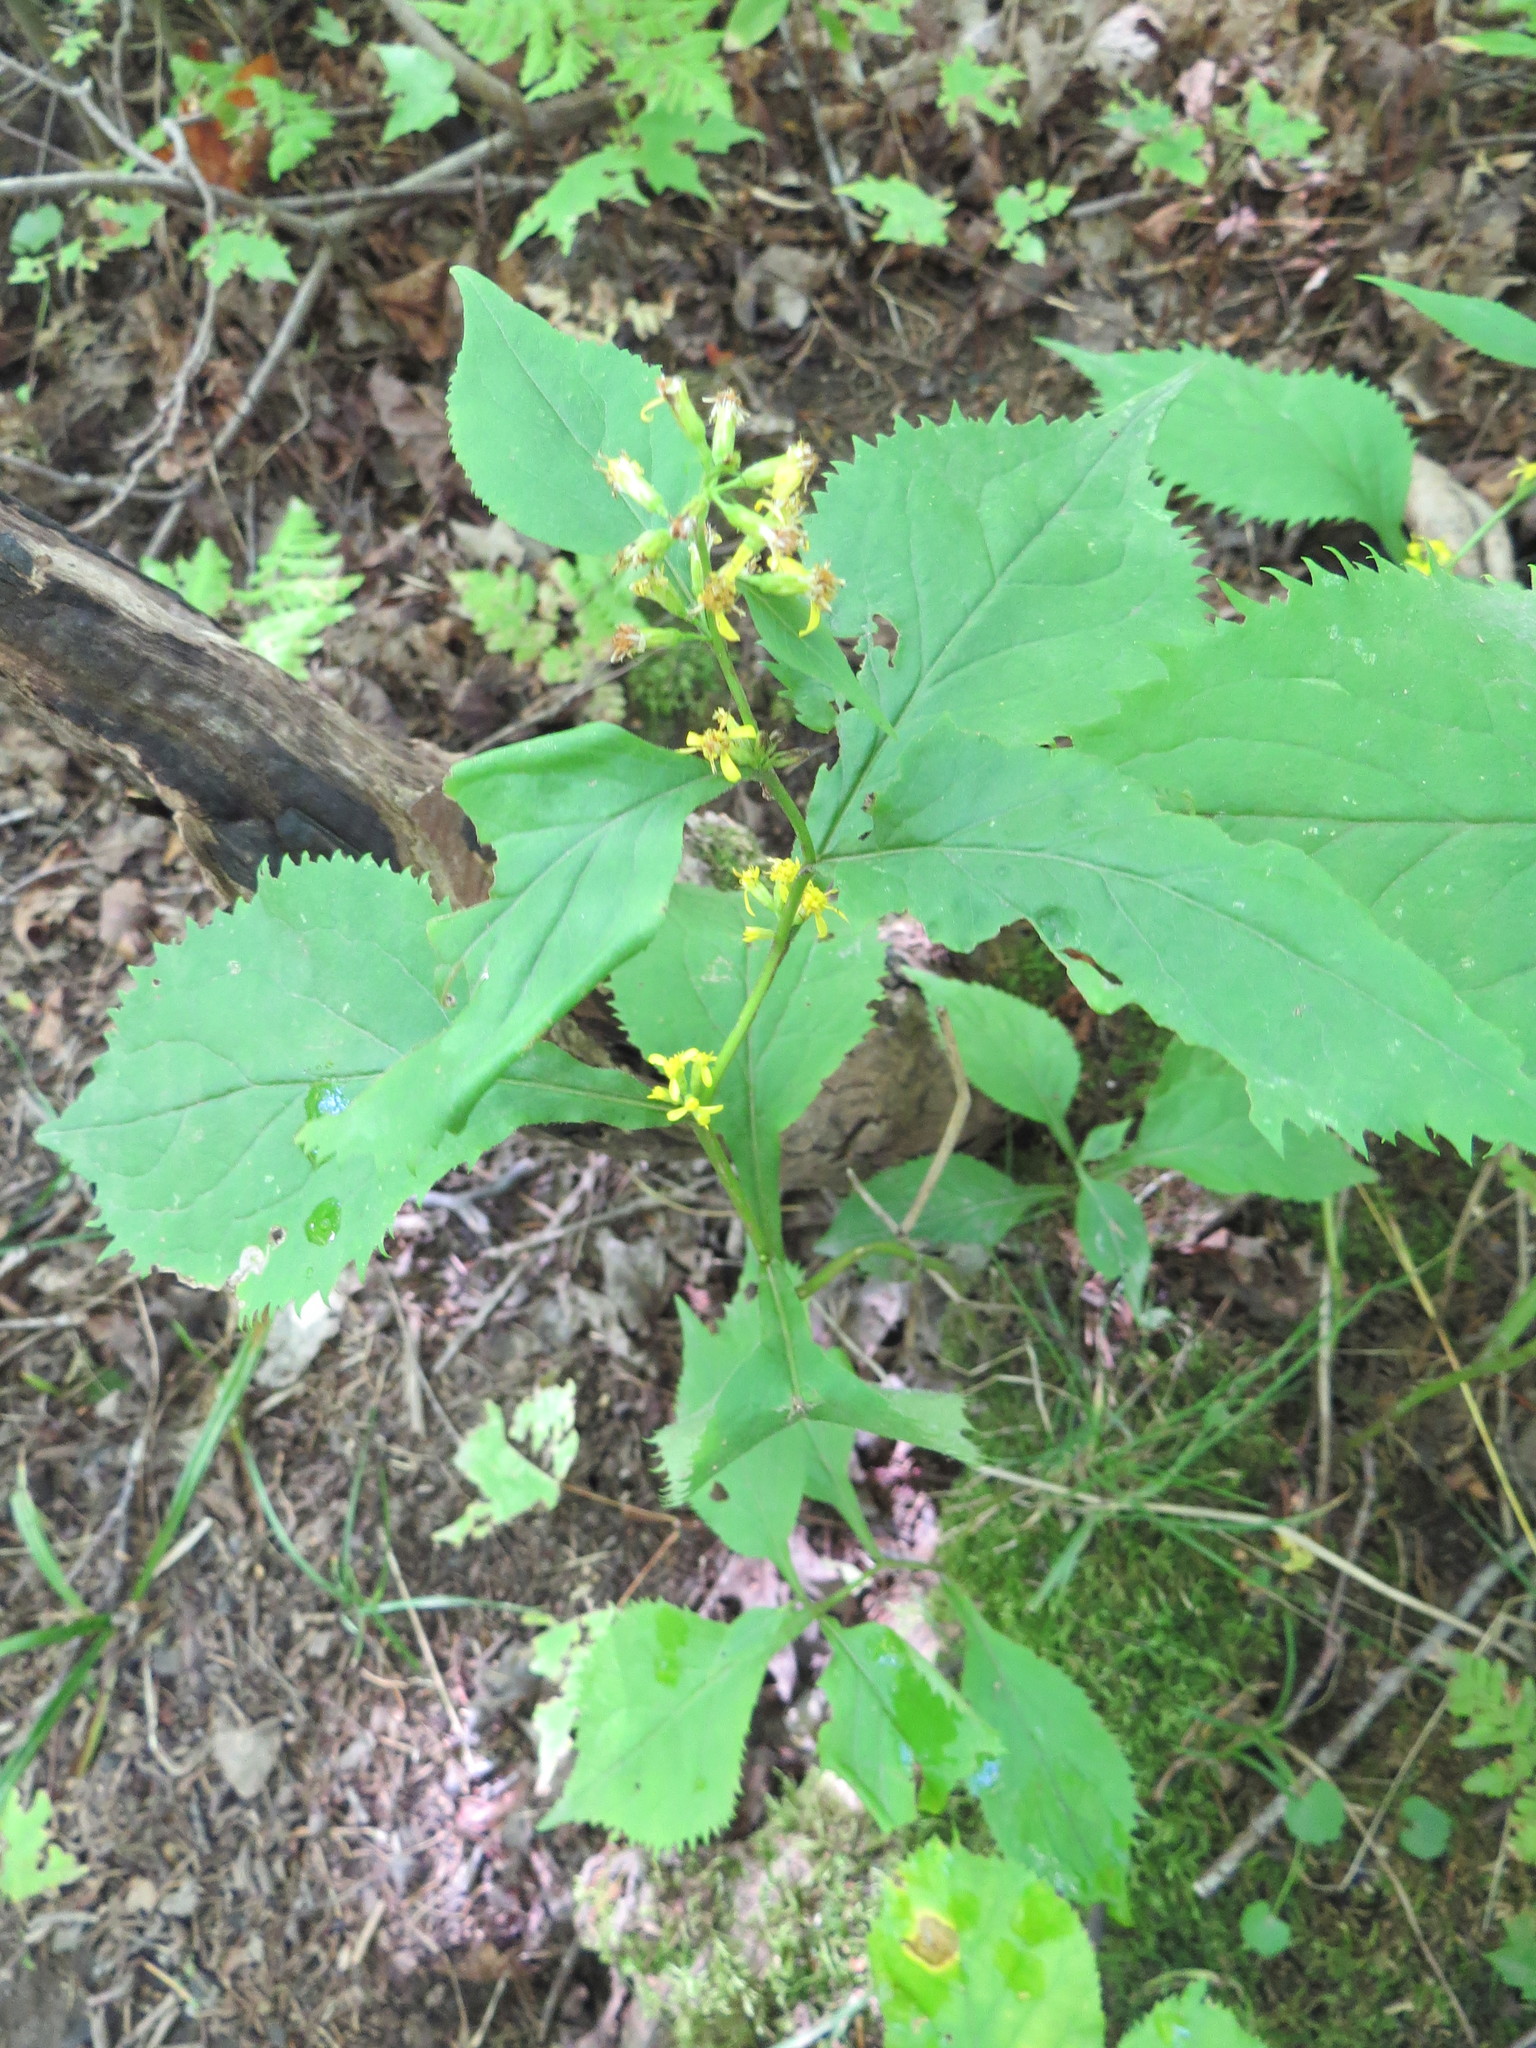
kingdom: Plantae
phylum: Tracheophyta
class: Magnoliopsida
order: Asterales
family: Asteraceae
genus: Solidago
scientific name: Solidago flexicaulis
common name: Zig-zag goldenrod
